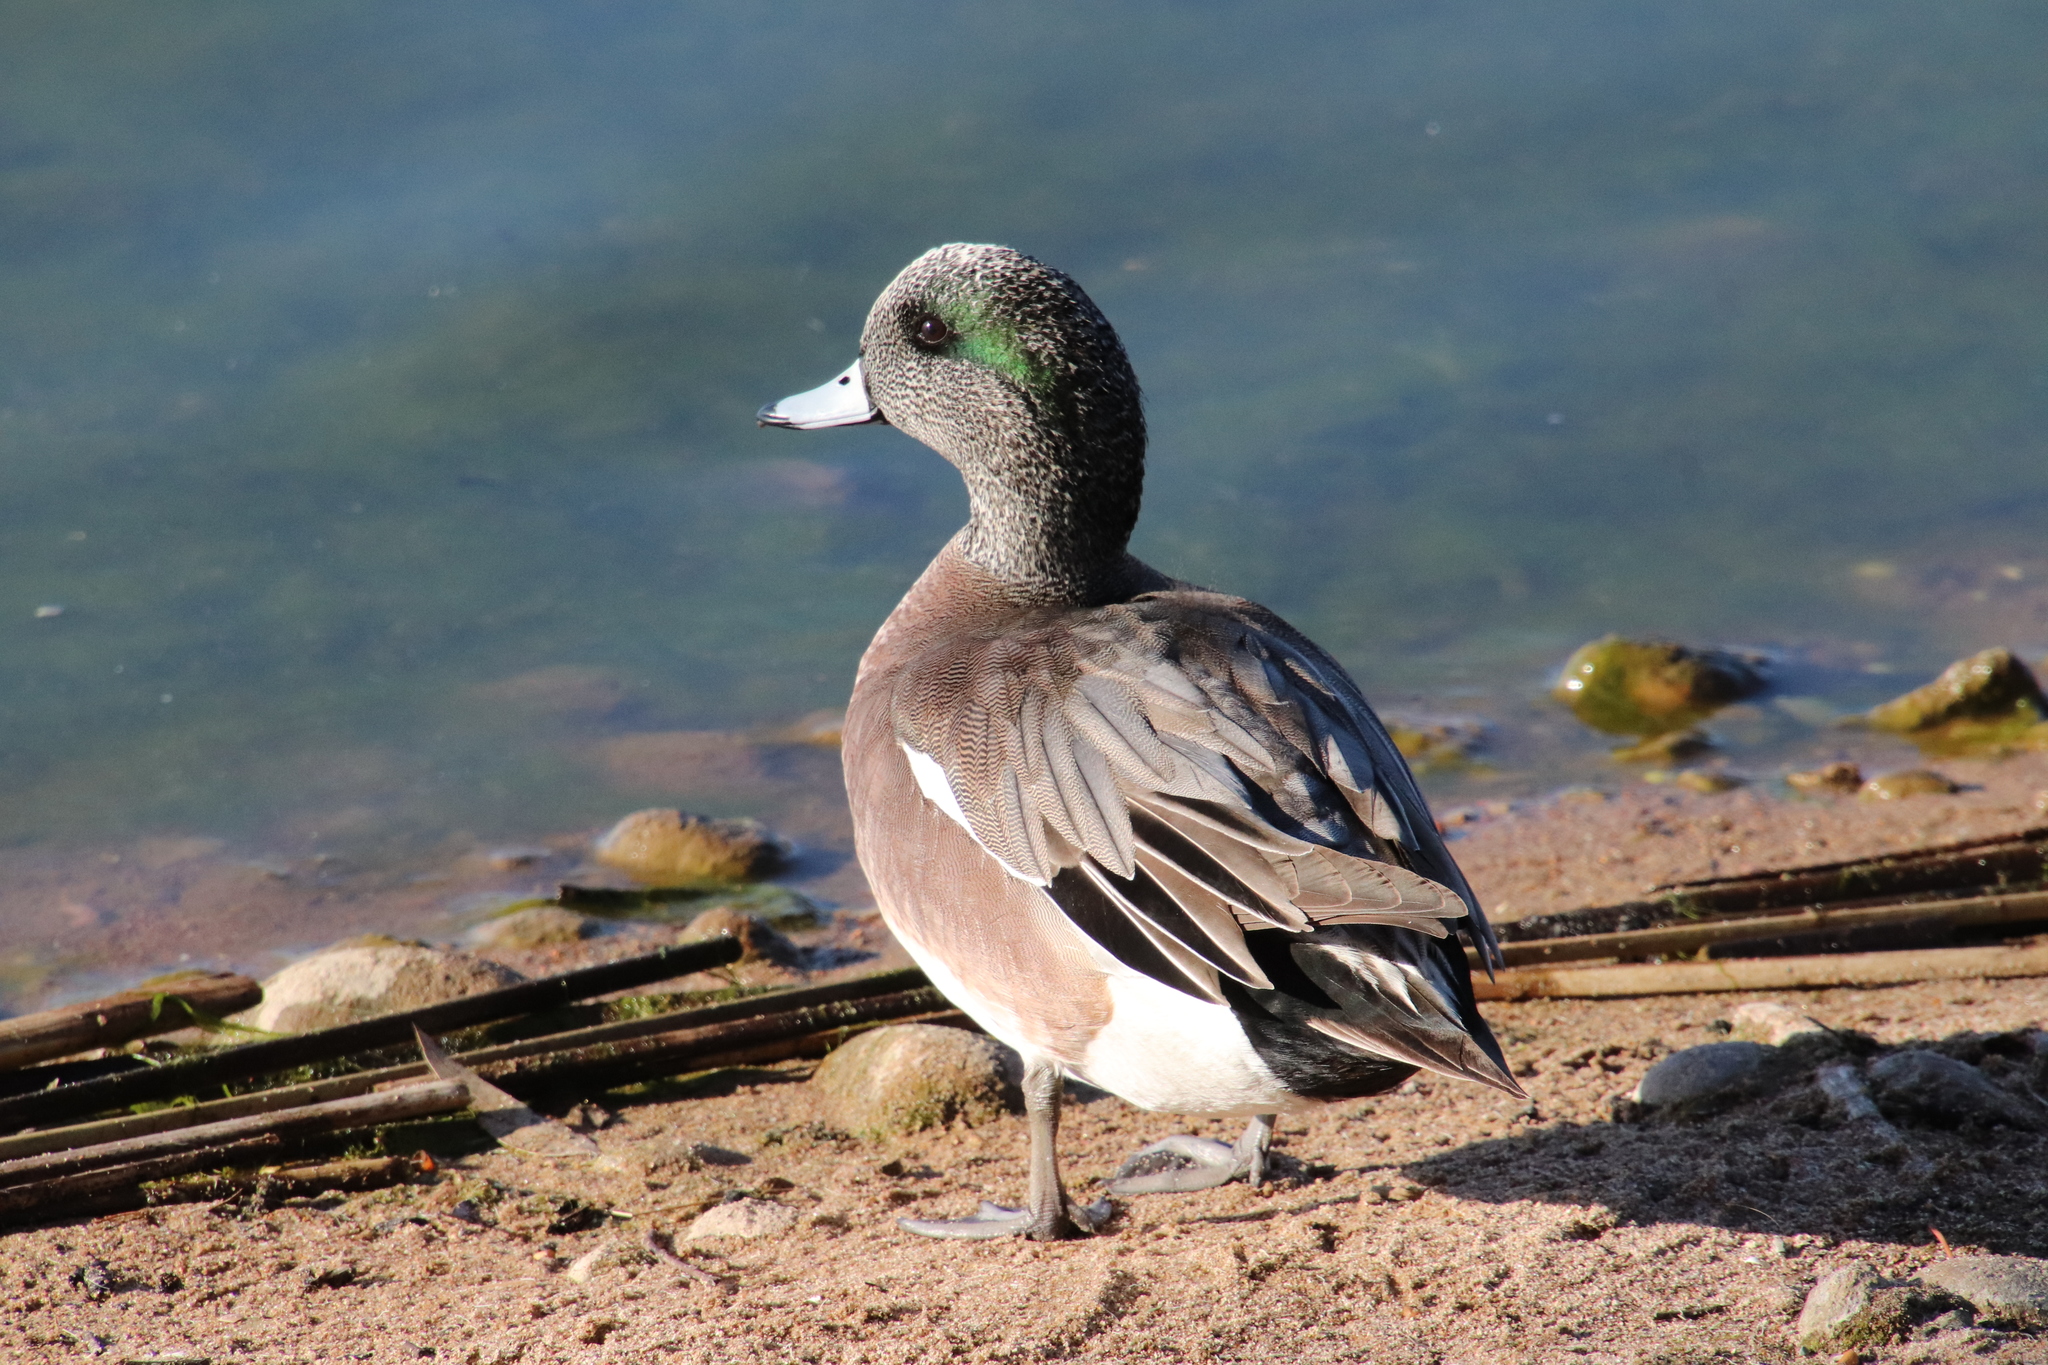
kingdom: Animalia
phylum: Chordata
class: Aves
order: Anseriformes
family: Anatidae
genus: Mareca
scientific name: Mareca americana
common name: American wigeon
